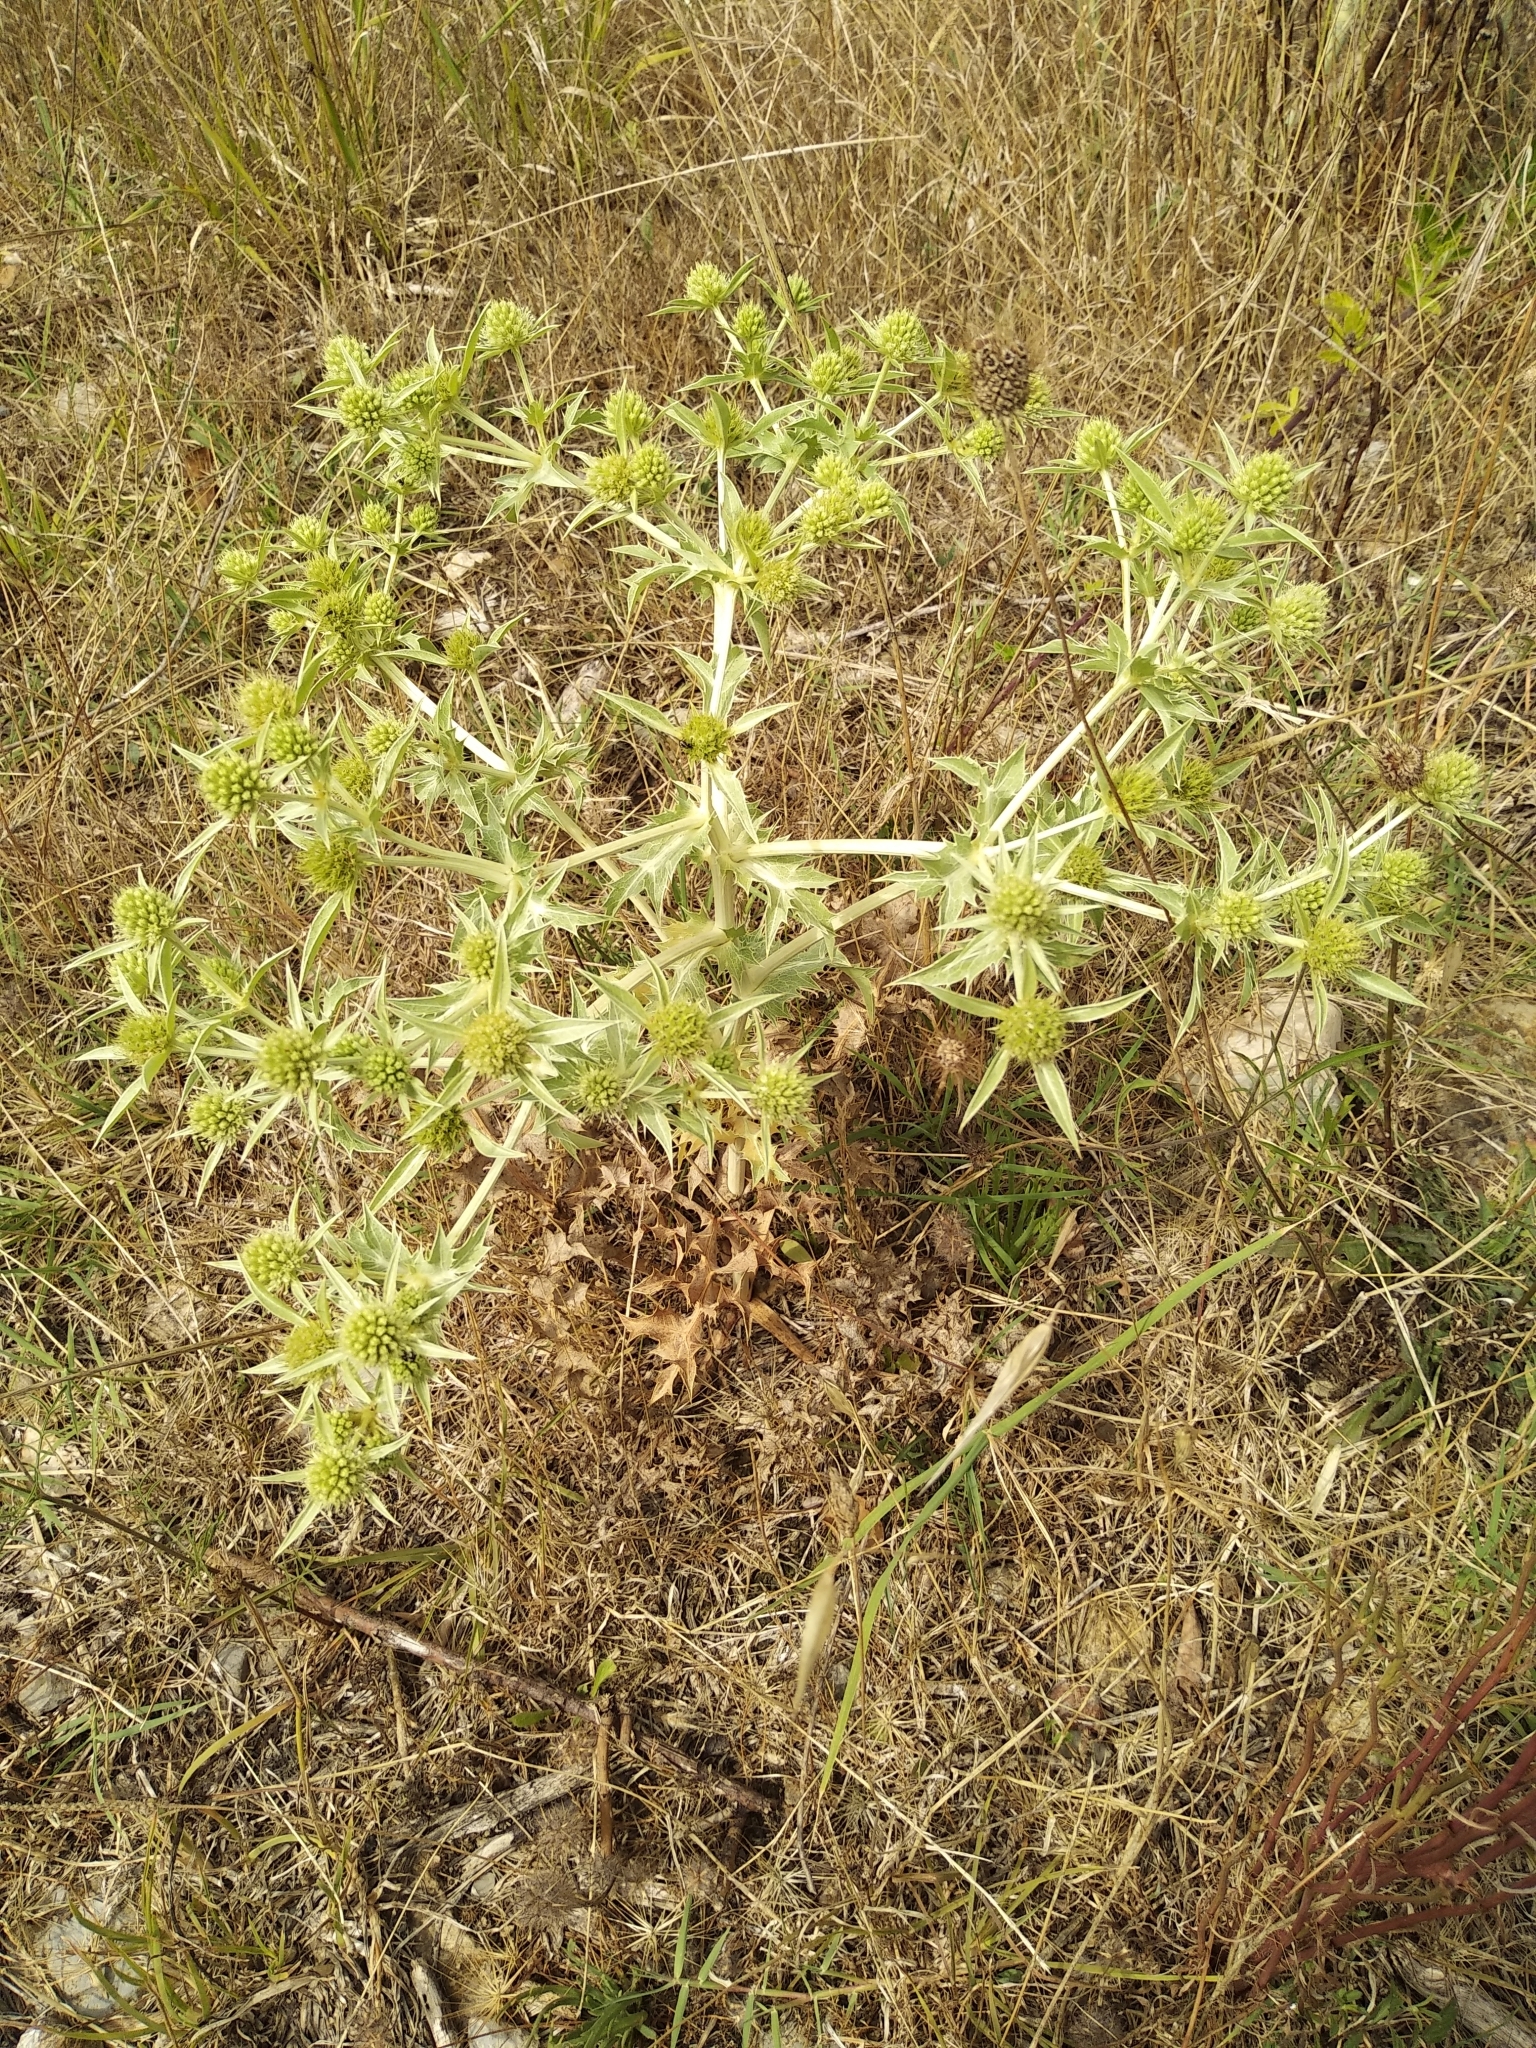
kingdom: Plantae
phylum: Tracheophyta
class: Magnoliopsida
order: Apiales
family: Apiaceae
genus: Eryngium
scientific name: Eryngium campestre
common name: Field eryngo
